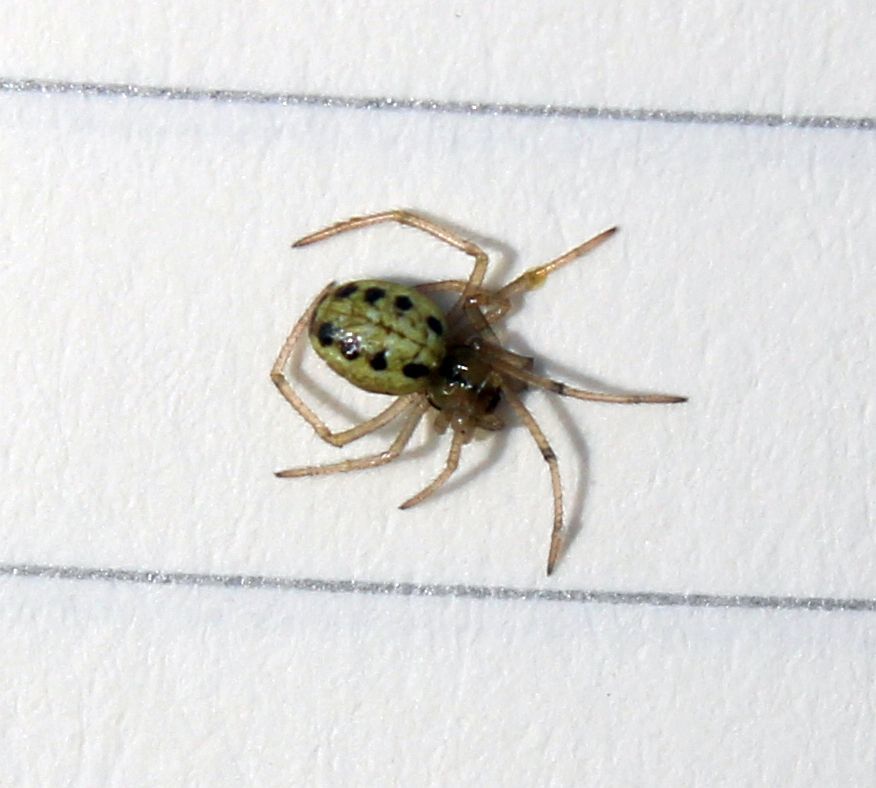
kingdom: Animalia
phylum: Arthropoda
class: Arachnida
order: Araneae
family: Theridiidae
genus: Enoplognatha
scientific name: Enoplognatha ovata
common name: Common candy-striped spider
